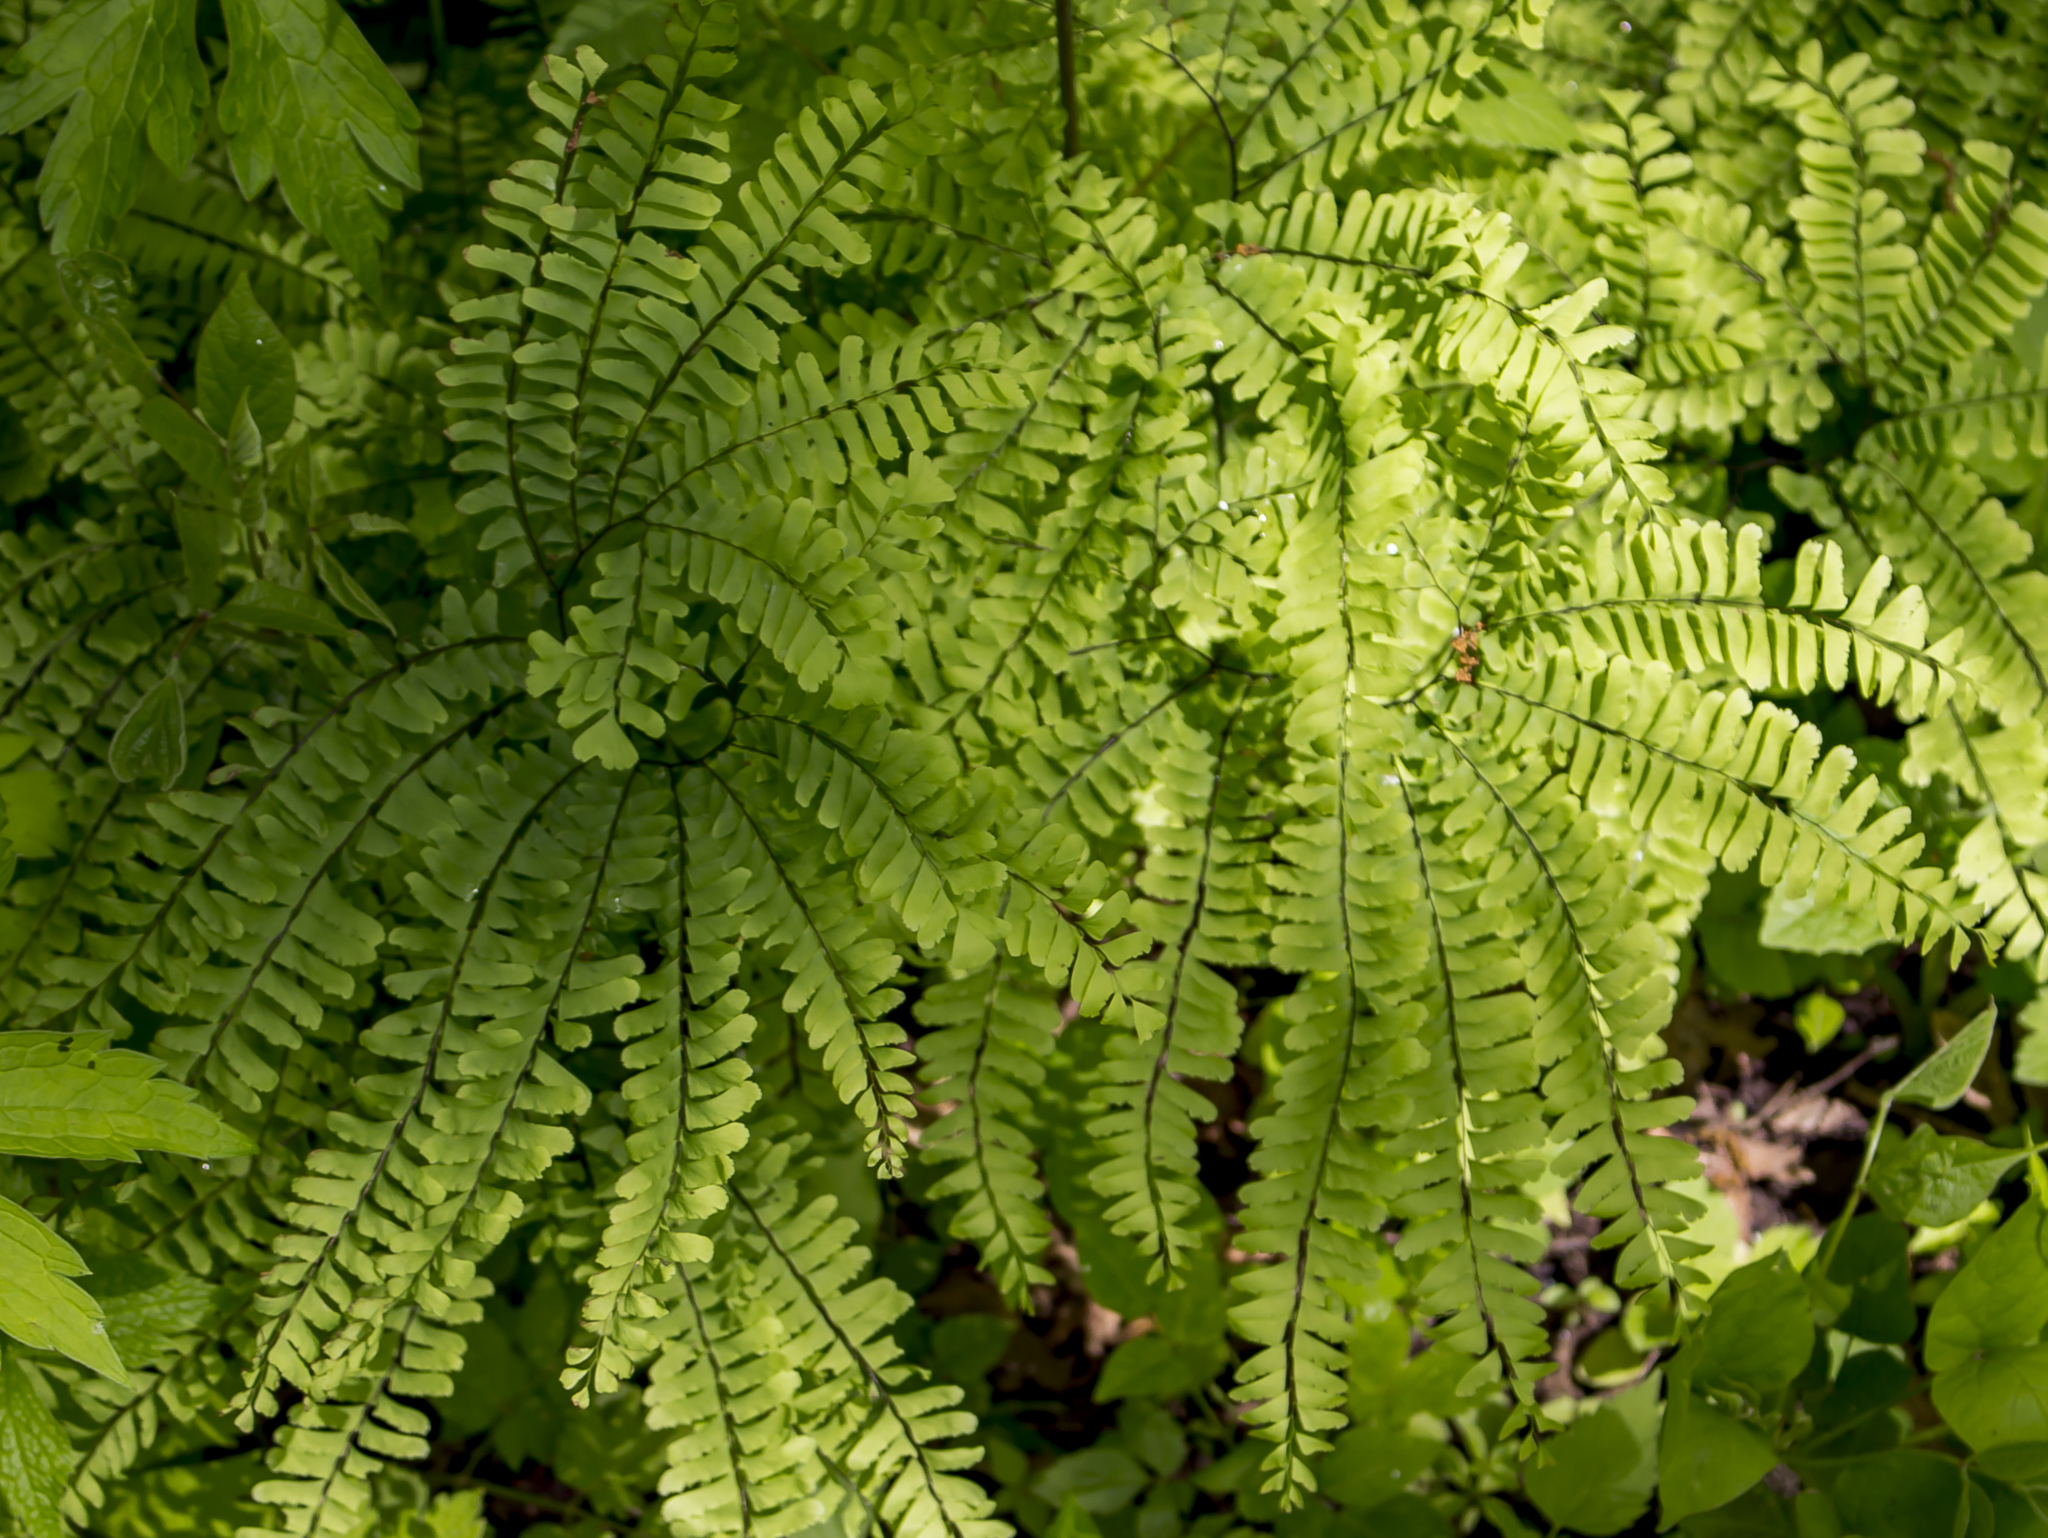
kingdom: Plantae
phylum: Tracheophyta
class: Polypodiopsida
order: Polypodiales
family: Pteridaceae
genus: Adiantum
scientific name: Adiantum pedatum
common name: Five-finger fern
